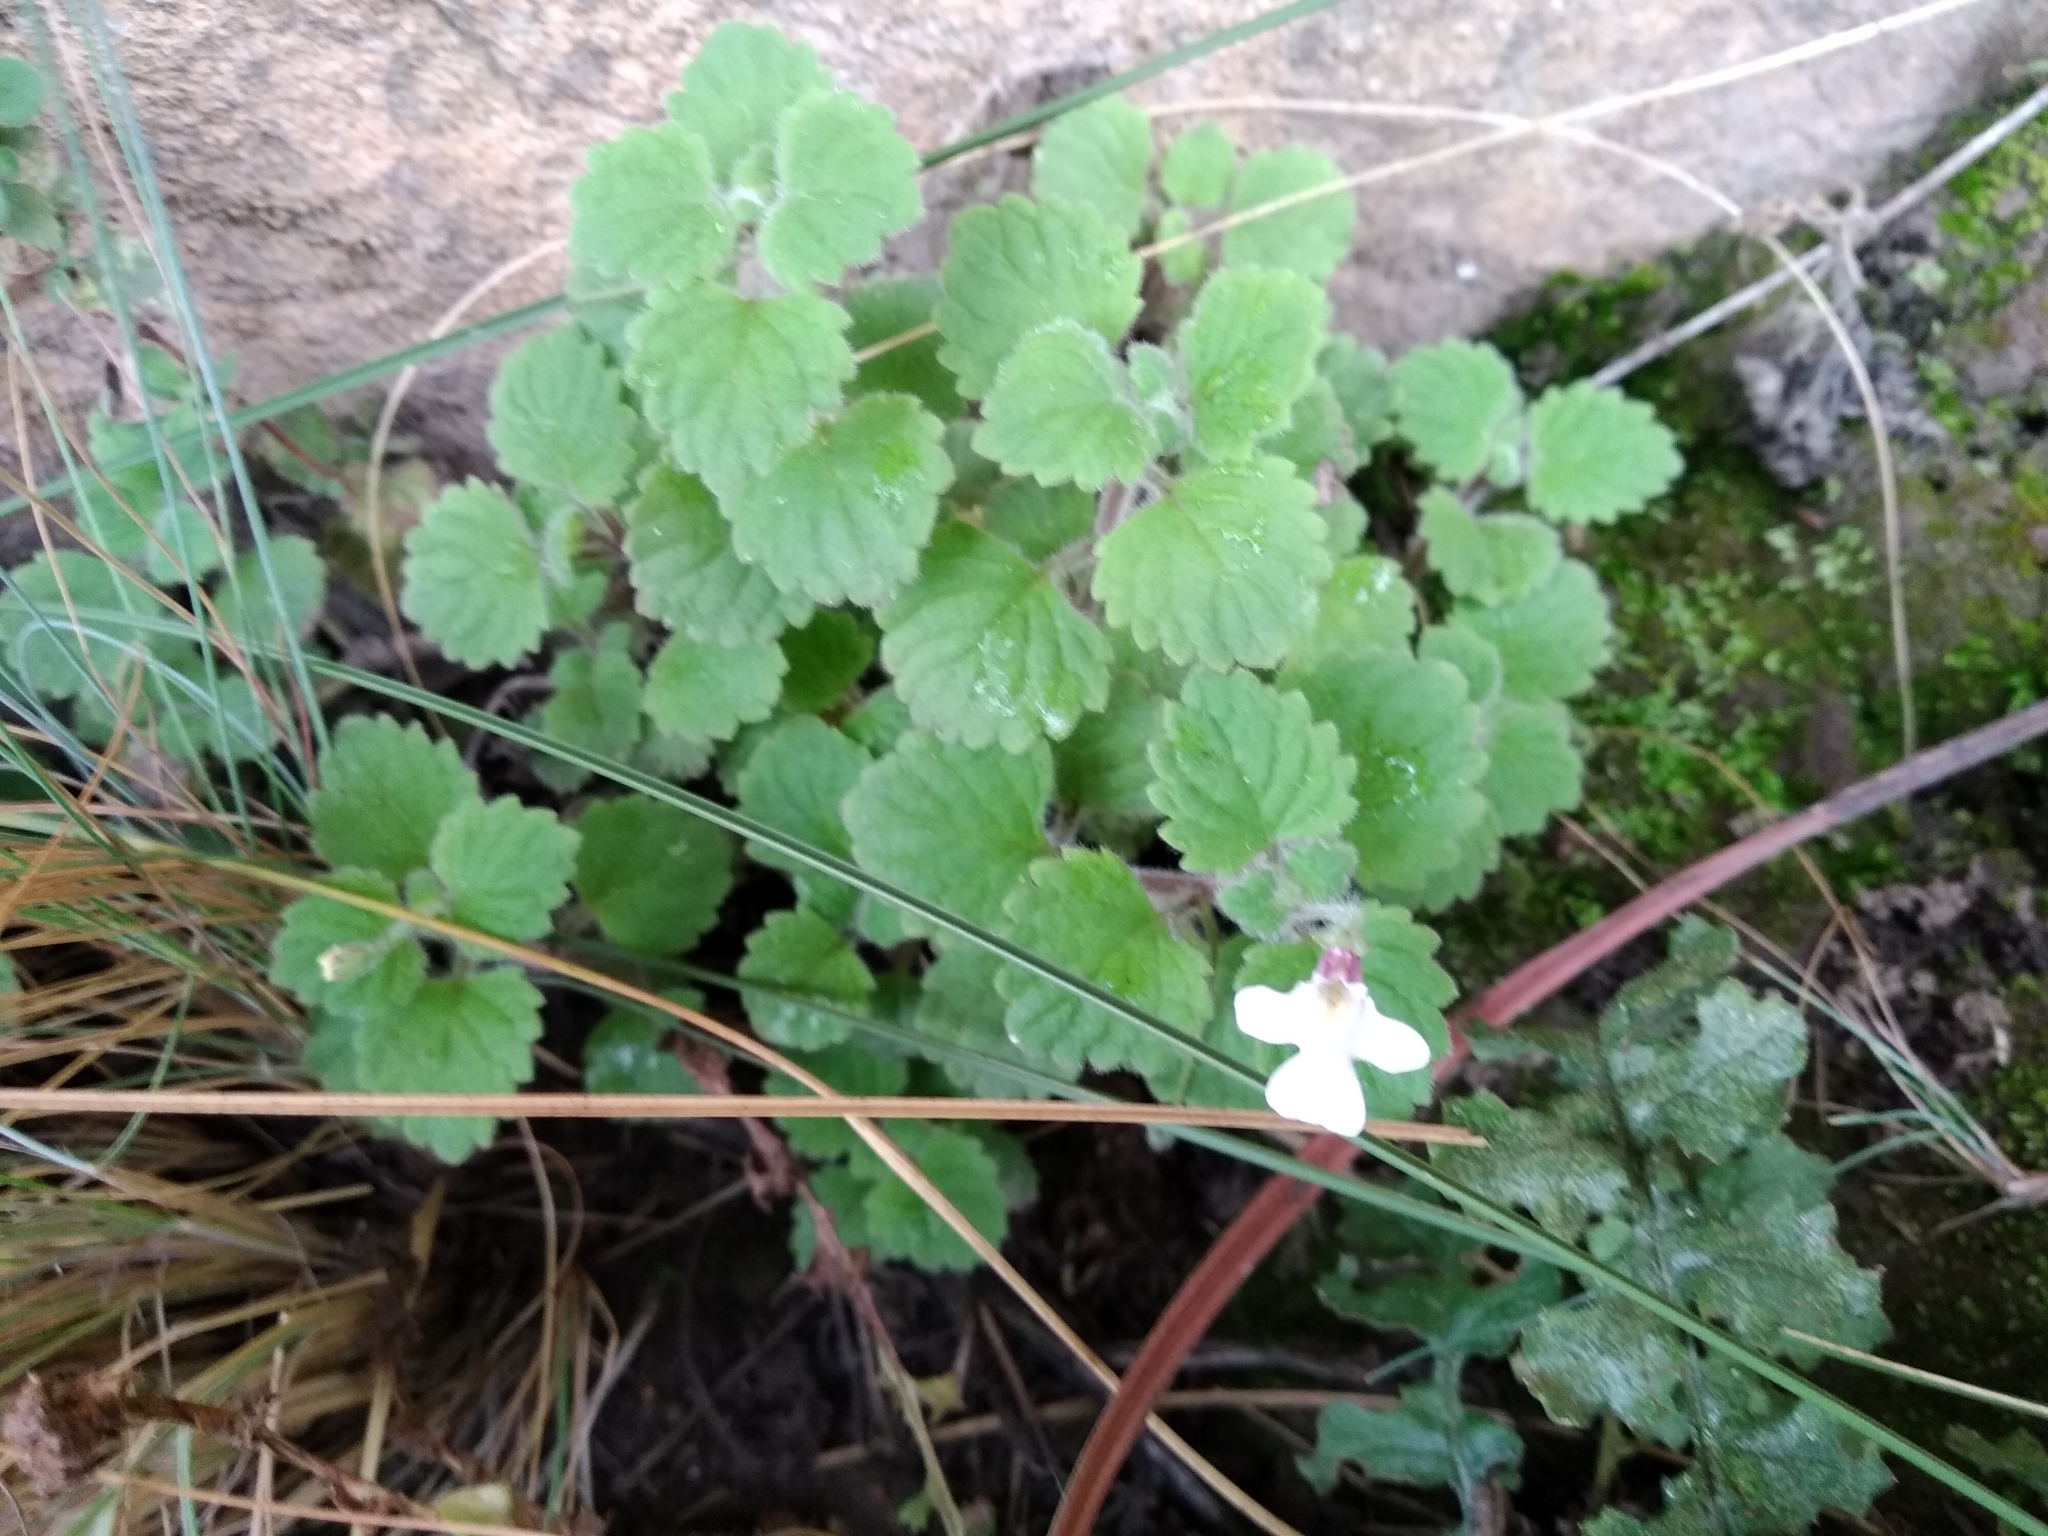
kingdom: Plantae
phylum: Tracheophyta
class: Magnoliopsida
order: Lamiales
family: Scrophulariaceae
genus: Diclis
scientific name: Diclis reptans
